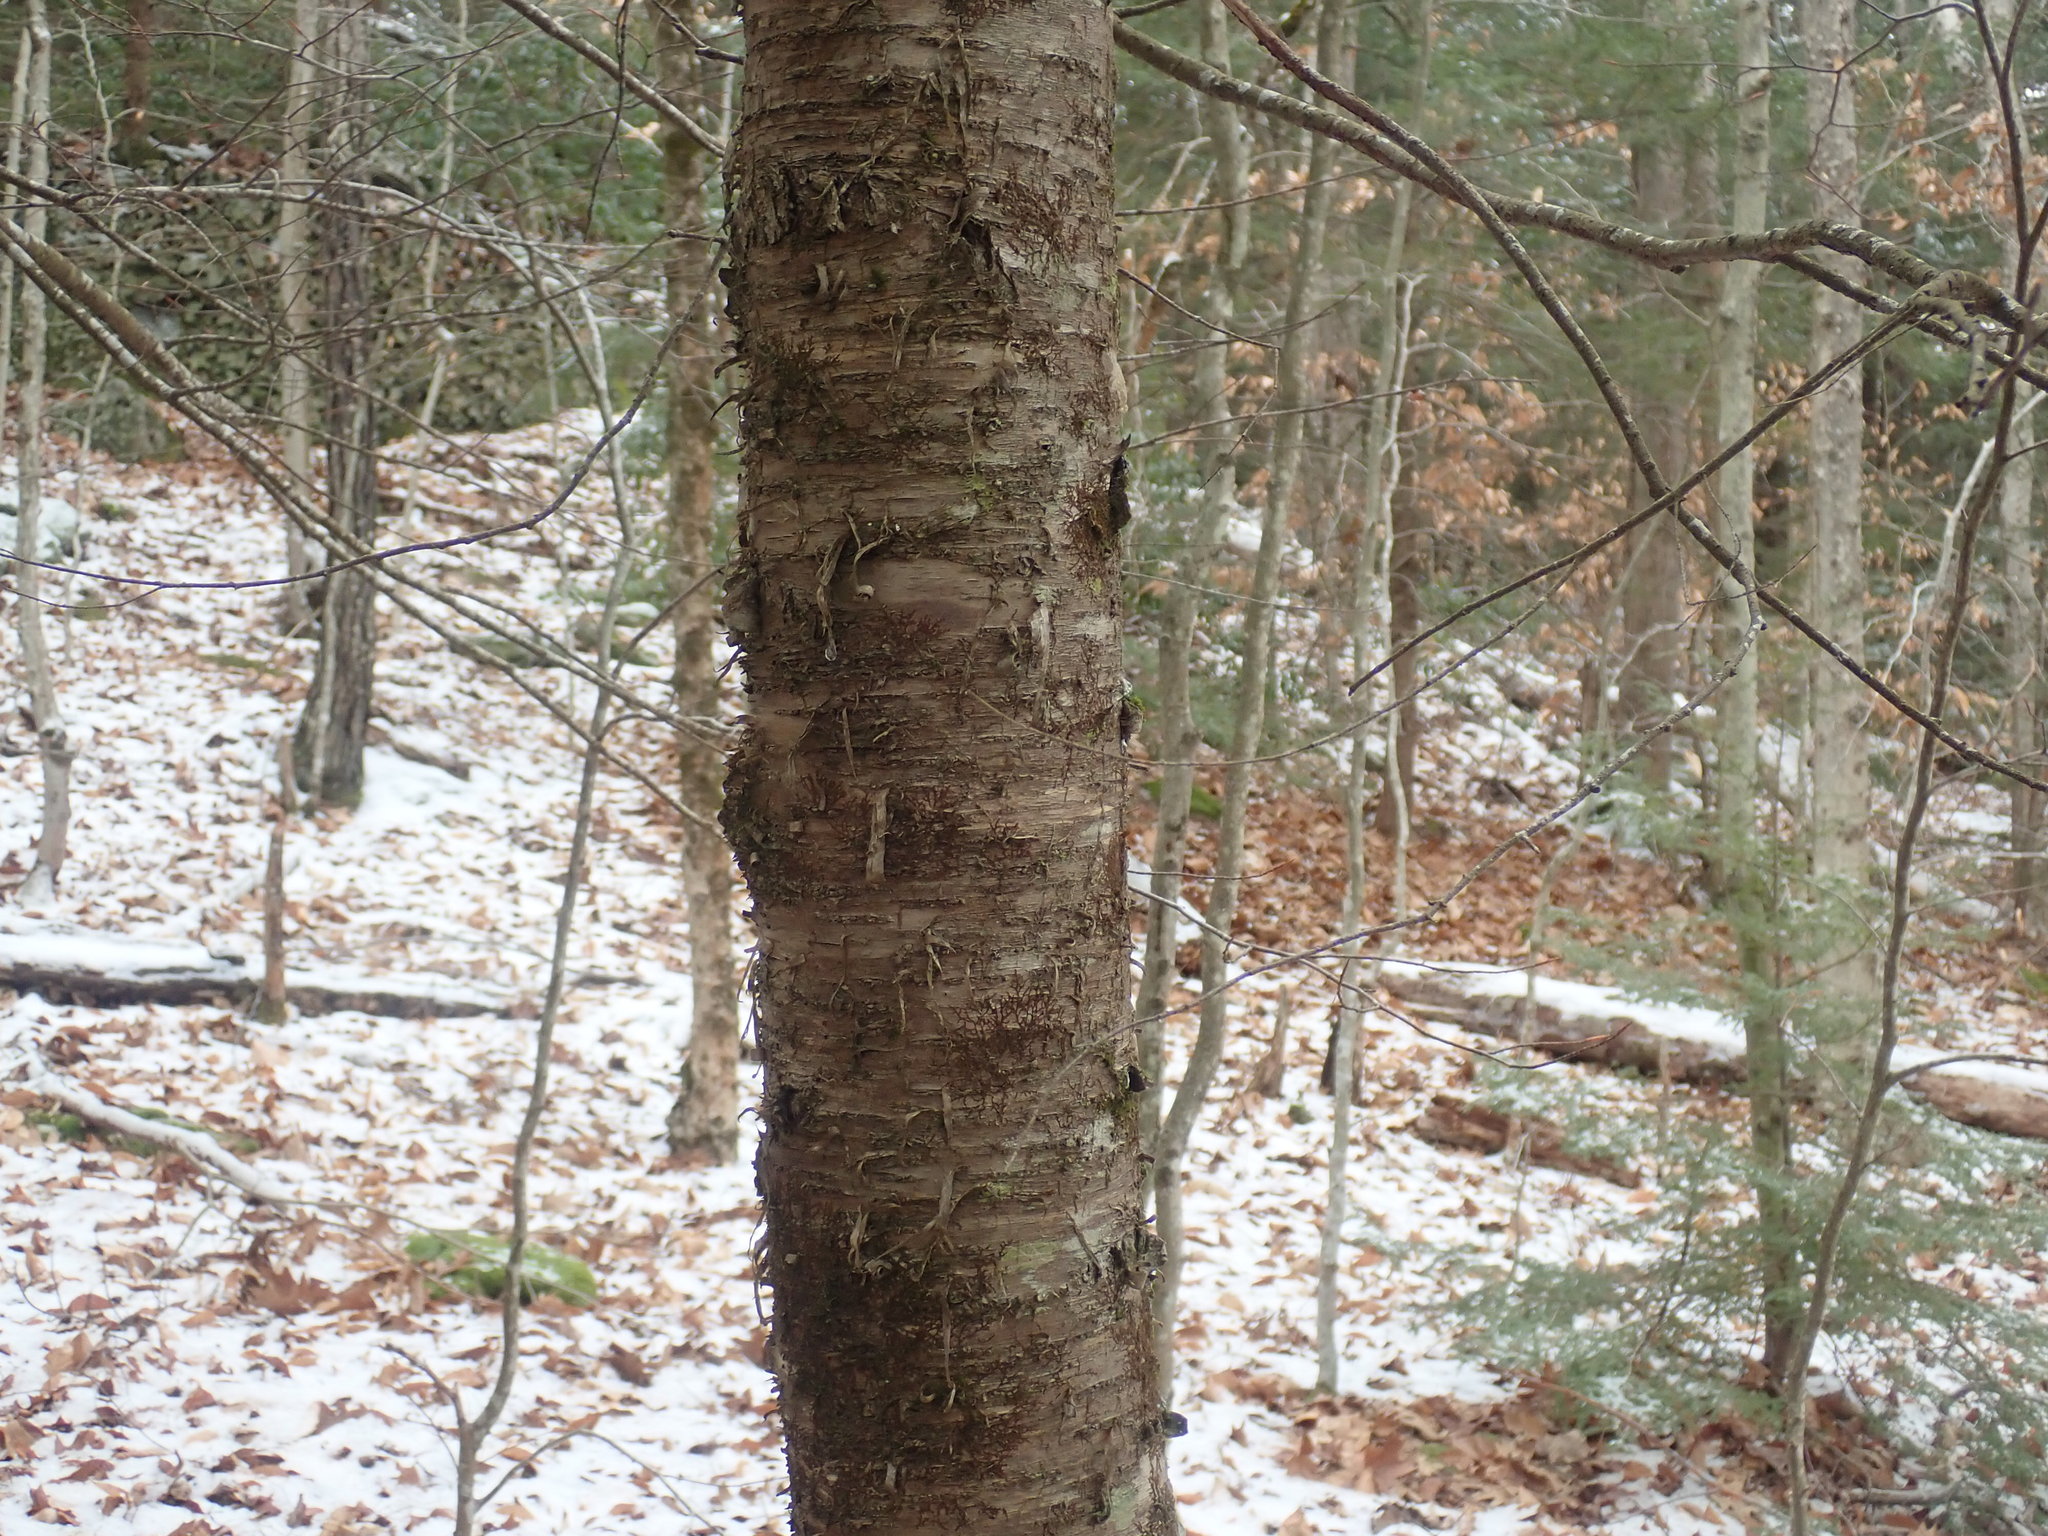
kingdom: Plantae
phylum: Tracheophyta
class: Magnoliopsida
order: Fagales
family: Betulaceae
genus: Betula
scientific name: Betula alleghaniensis
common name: Yellow birch
